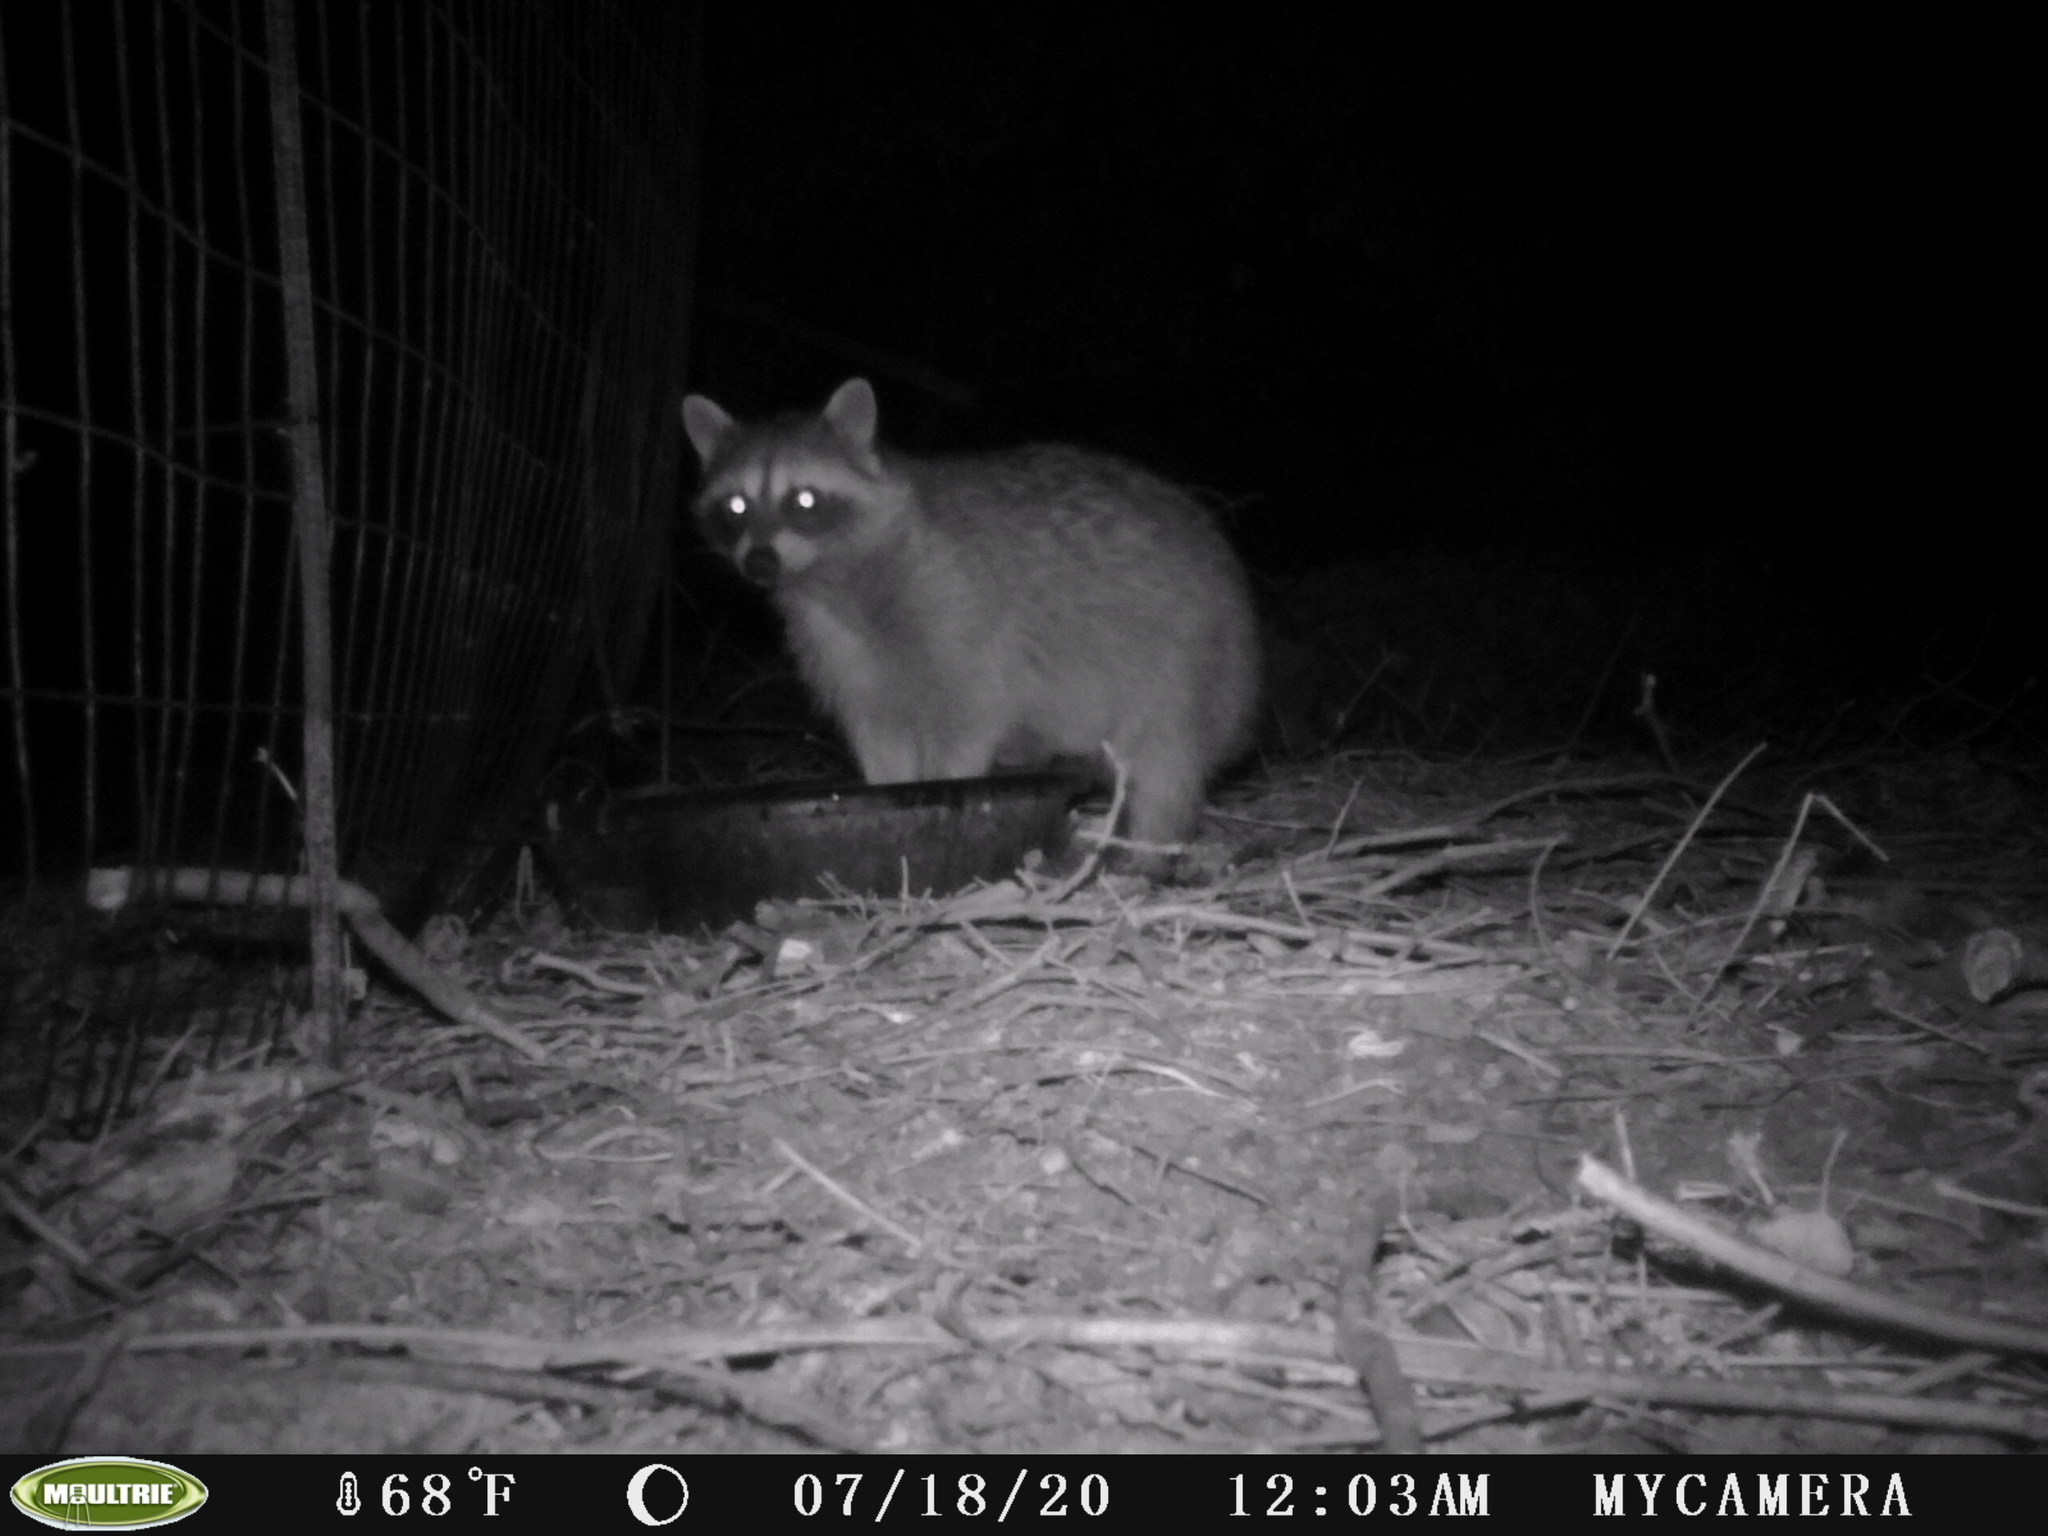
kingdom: Animalia
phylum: Chordata
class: Mammalia
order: Carnivora
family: Procyonidae
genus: Procyon
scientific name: Procyon lotor
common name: Raccoon
